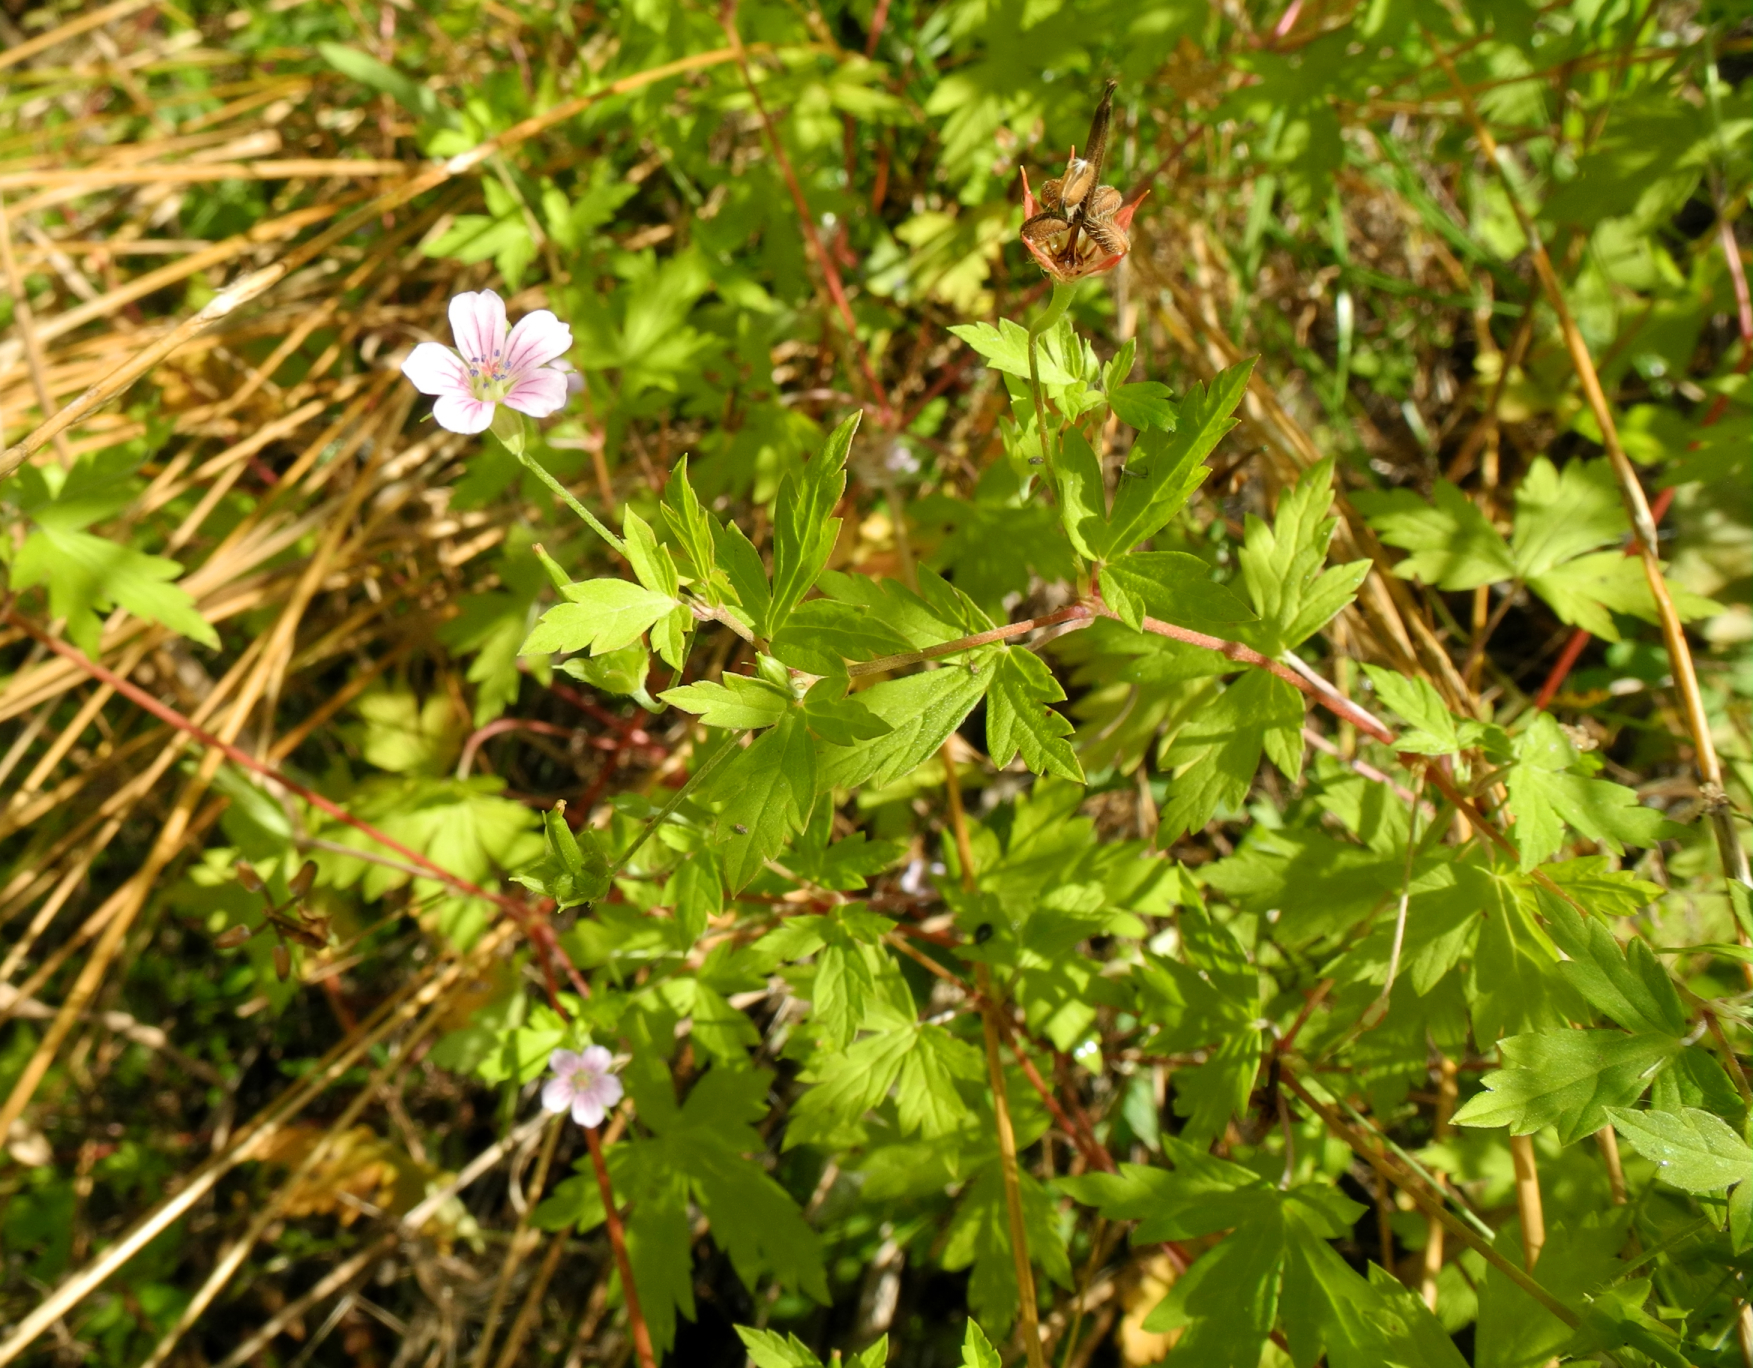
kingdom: Plantae
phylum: Tracheophyta
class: Magnoliopsida
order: Geraniales
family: Geraniaceae
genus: Geranium
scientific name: Geranium sibiricum
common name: Siberian crane's-bill
